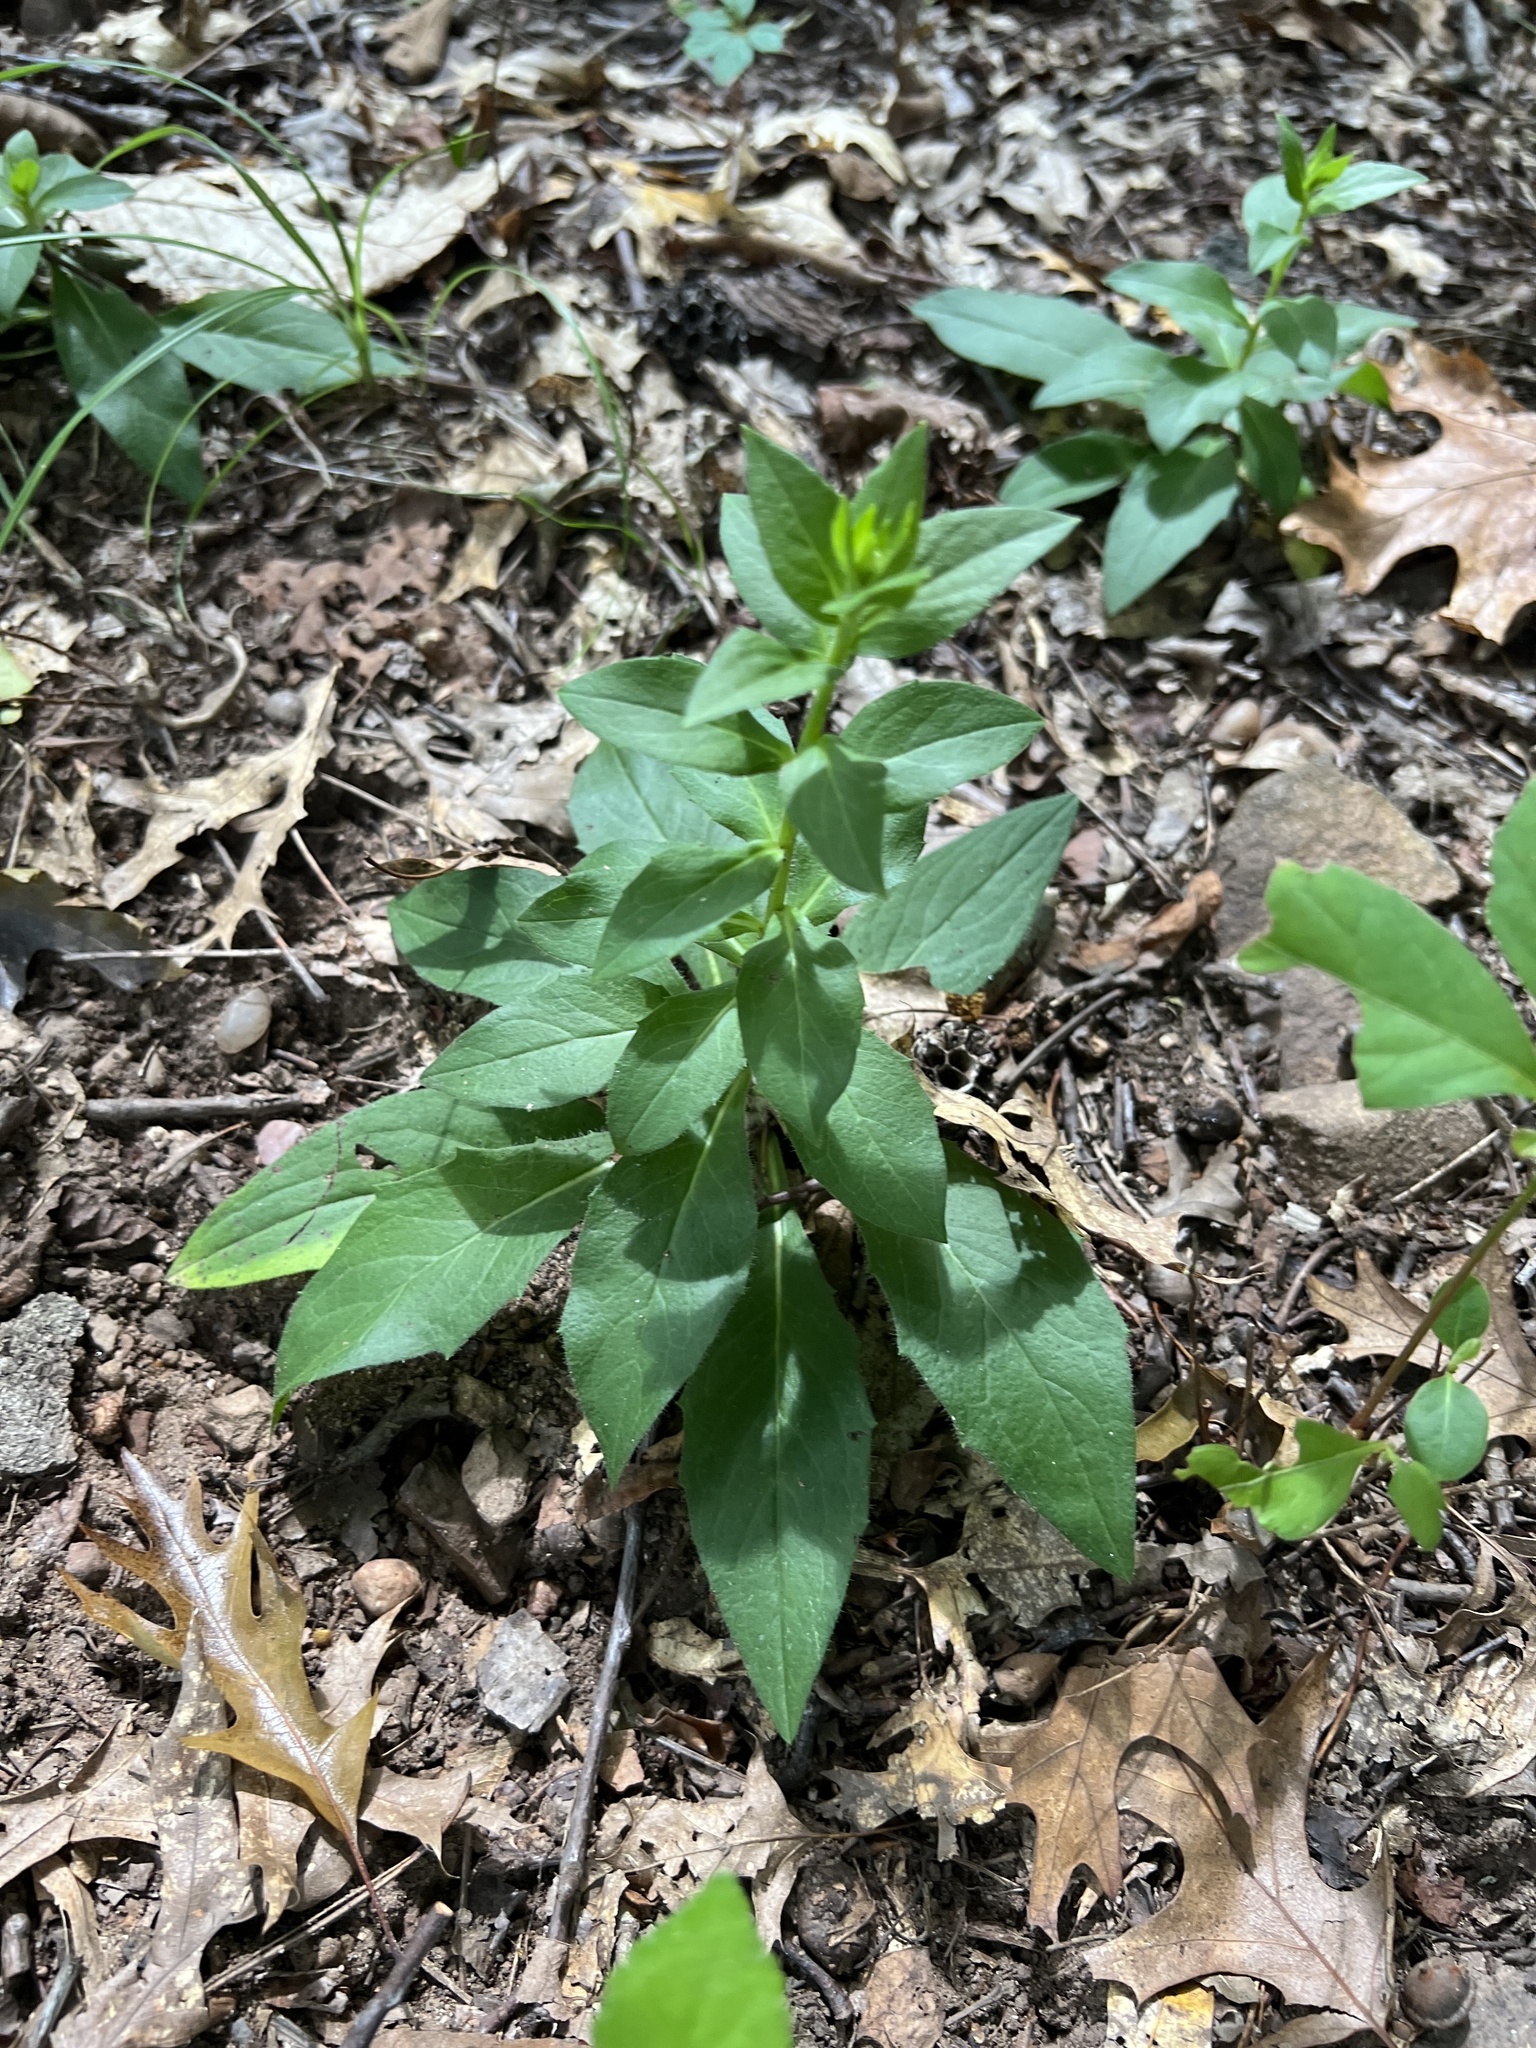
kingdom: Plantae
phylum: Tracheophyta
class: Magnoliopsida
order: Brassicales
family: Brassicaceae
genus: Hesperis
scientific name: Hesperis matronalis
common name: Dame's-violet
